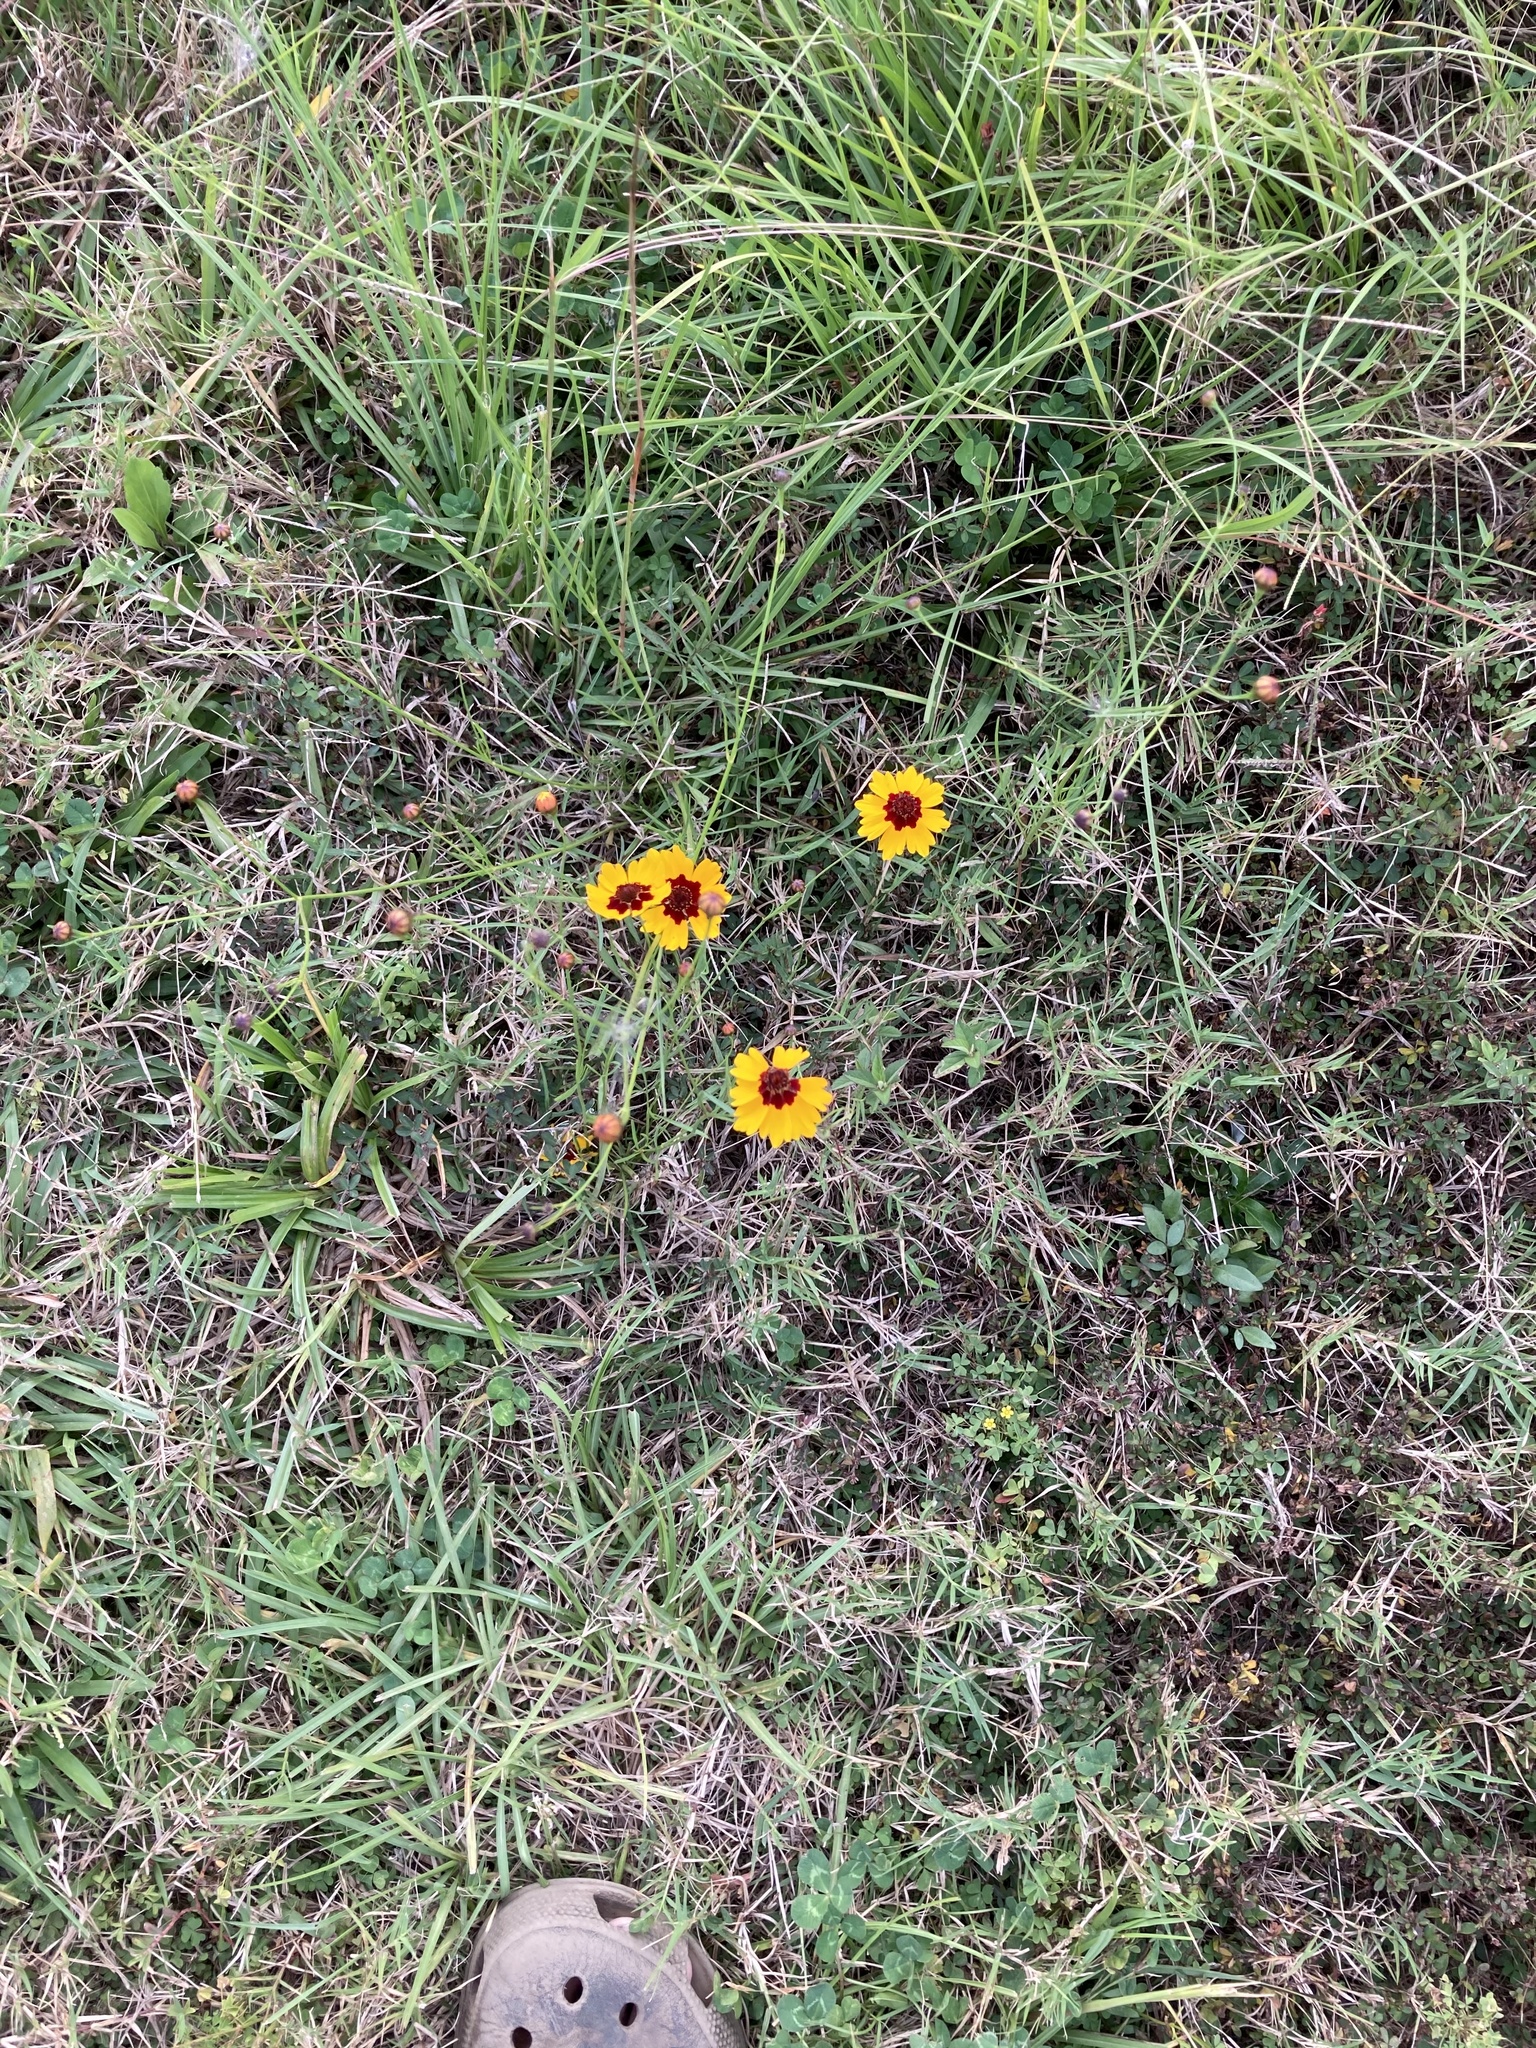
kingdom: Plantae
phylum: Tracheophyta
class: Magnoliopsida
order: Asterales
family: Asteraceae
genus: Coreopsis
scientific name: Coreopsis tinctoria
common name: Garden tickseed
